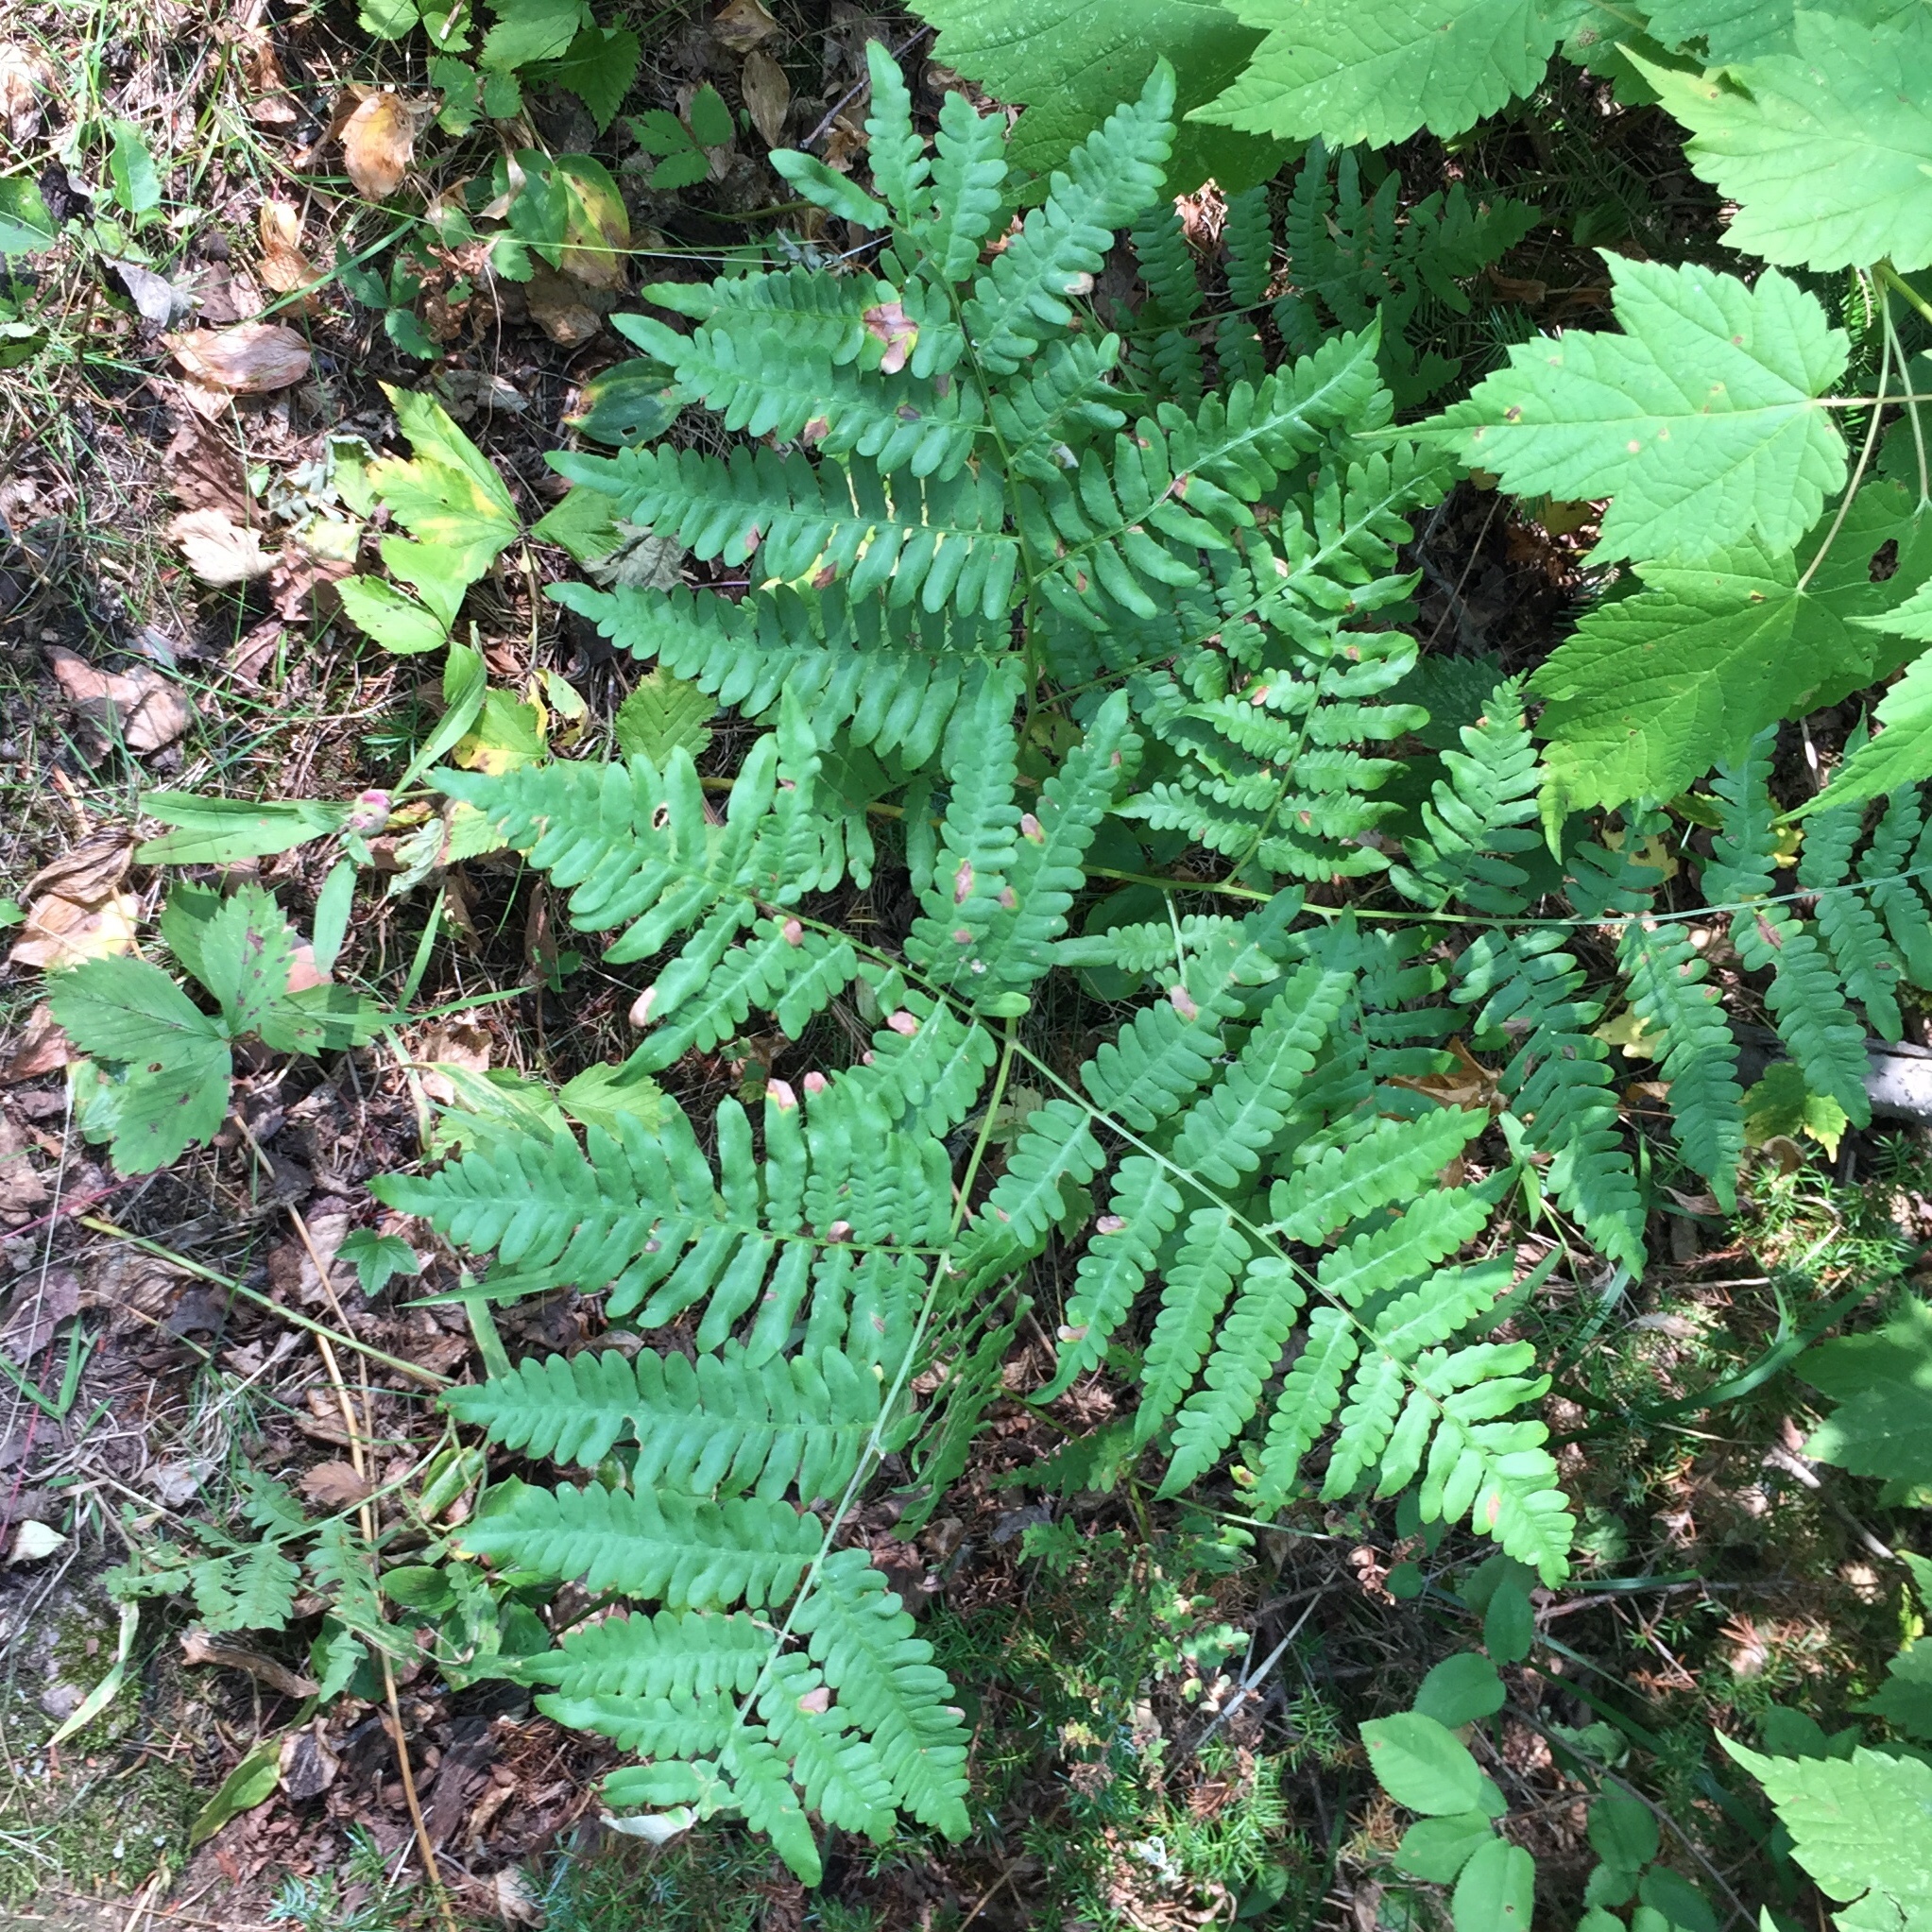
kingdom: Plantae
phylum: Tracheophyta
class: Polypodiopsida
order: Polypodiales
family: Dennstaedtiaceae
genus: Pteridium
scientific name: Pteridium aquilinum
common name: Bracken
